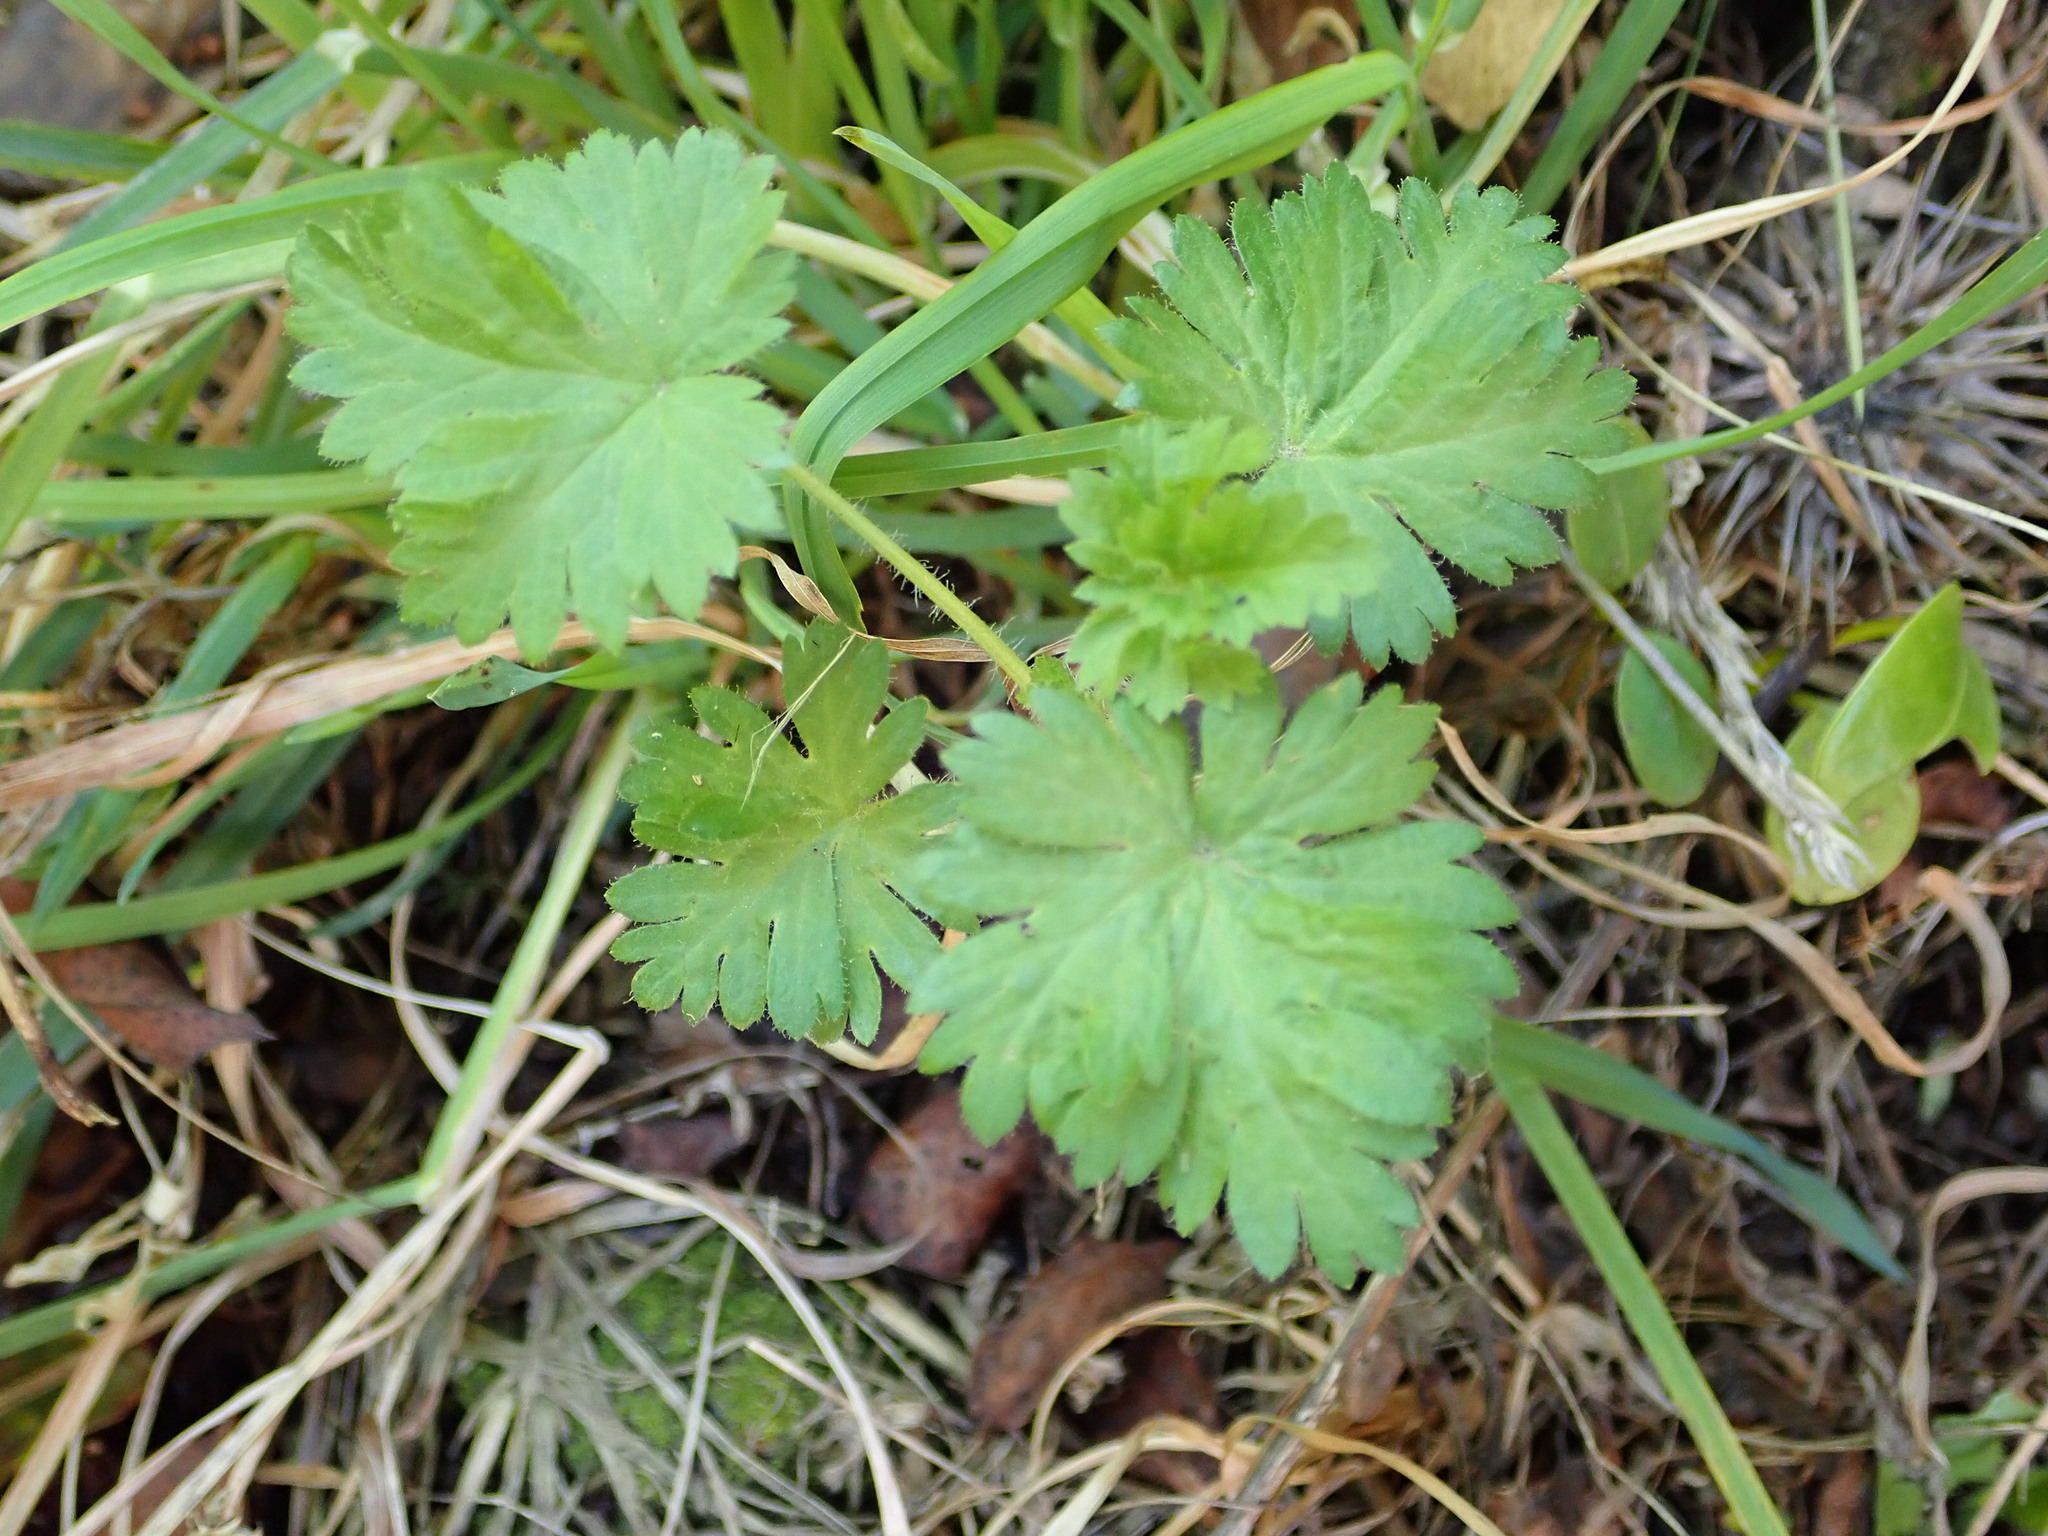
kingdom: Plantae
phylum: Tracheophyta
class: Magnoliopsida
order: Saxifragales
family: Grossulariaceae
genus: Ribes
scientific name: Ribes uva-crispa
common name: Gooseberry
